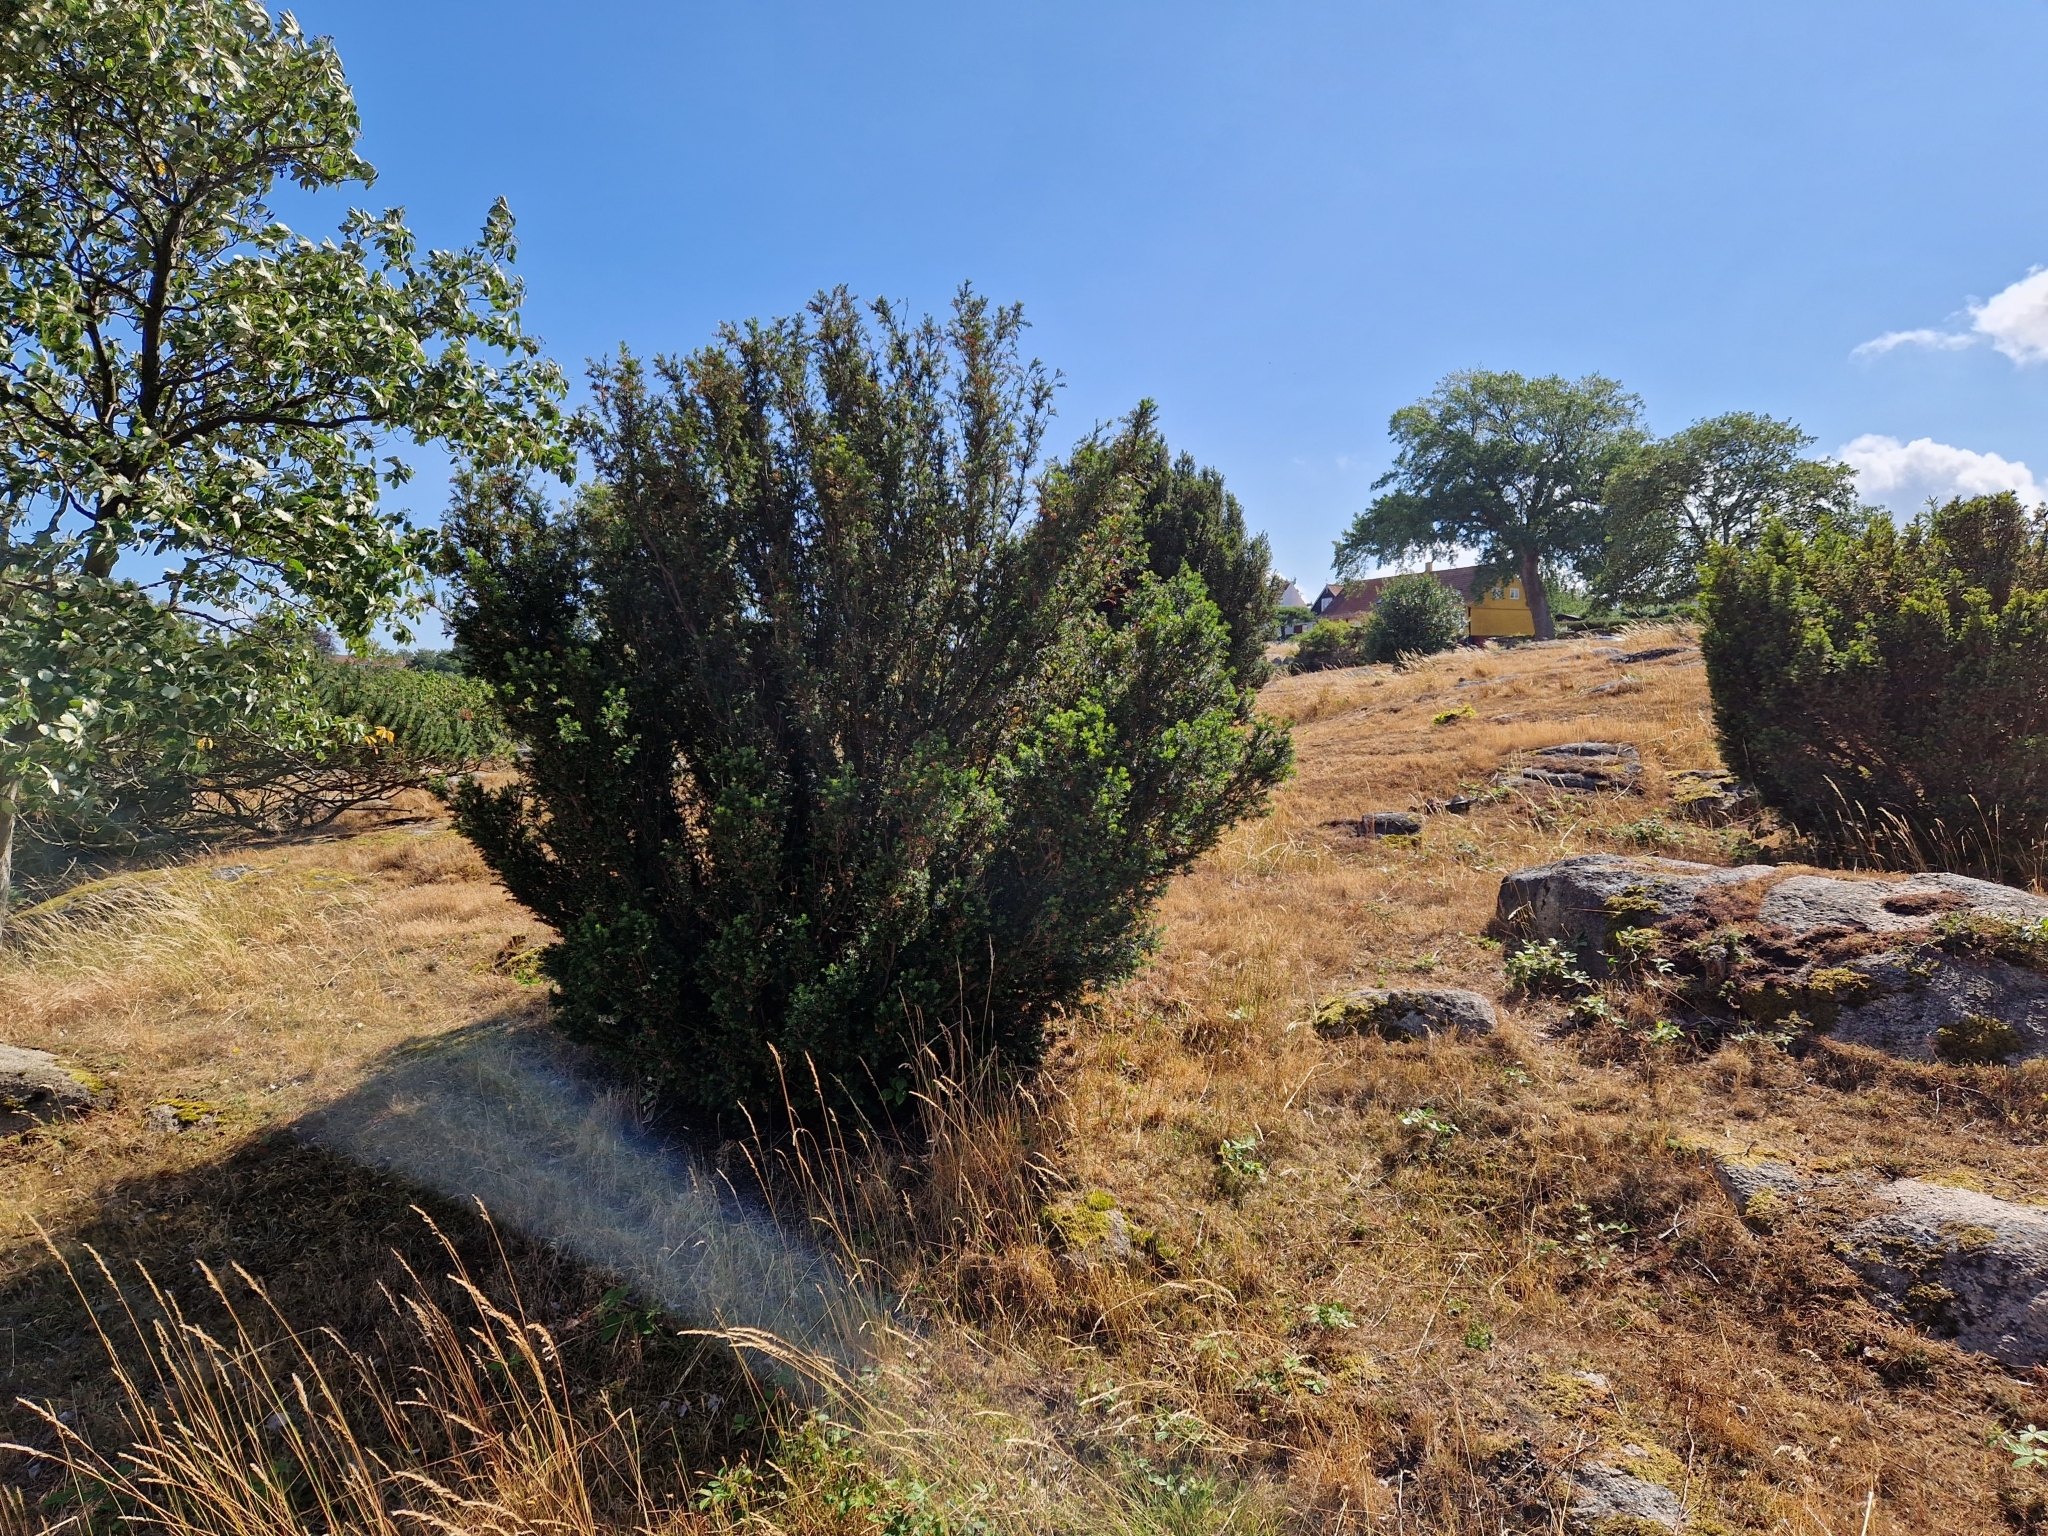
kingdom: Plantae
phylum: Tracheophyta
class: Pinopsida
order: Pinales
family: Taxaceae
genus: Taxus
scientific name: Taxus baccata
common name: Yew
